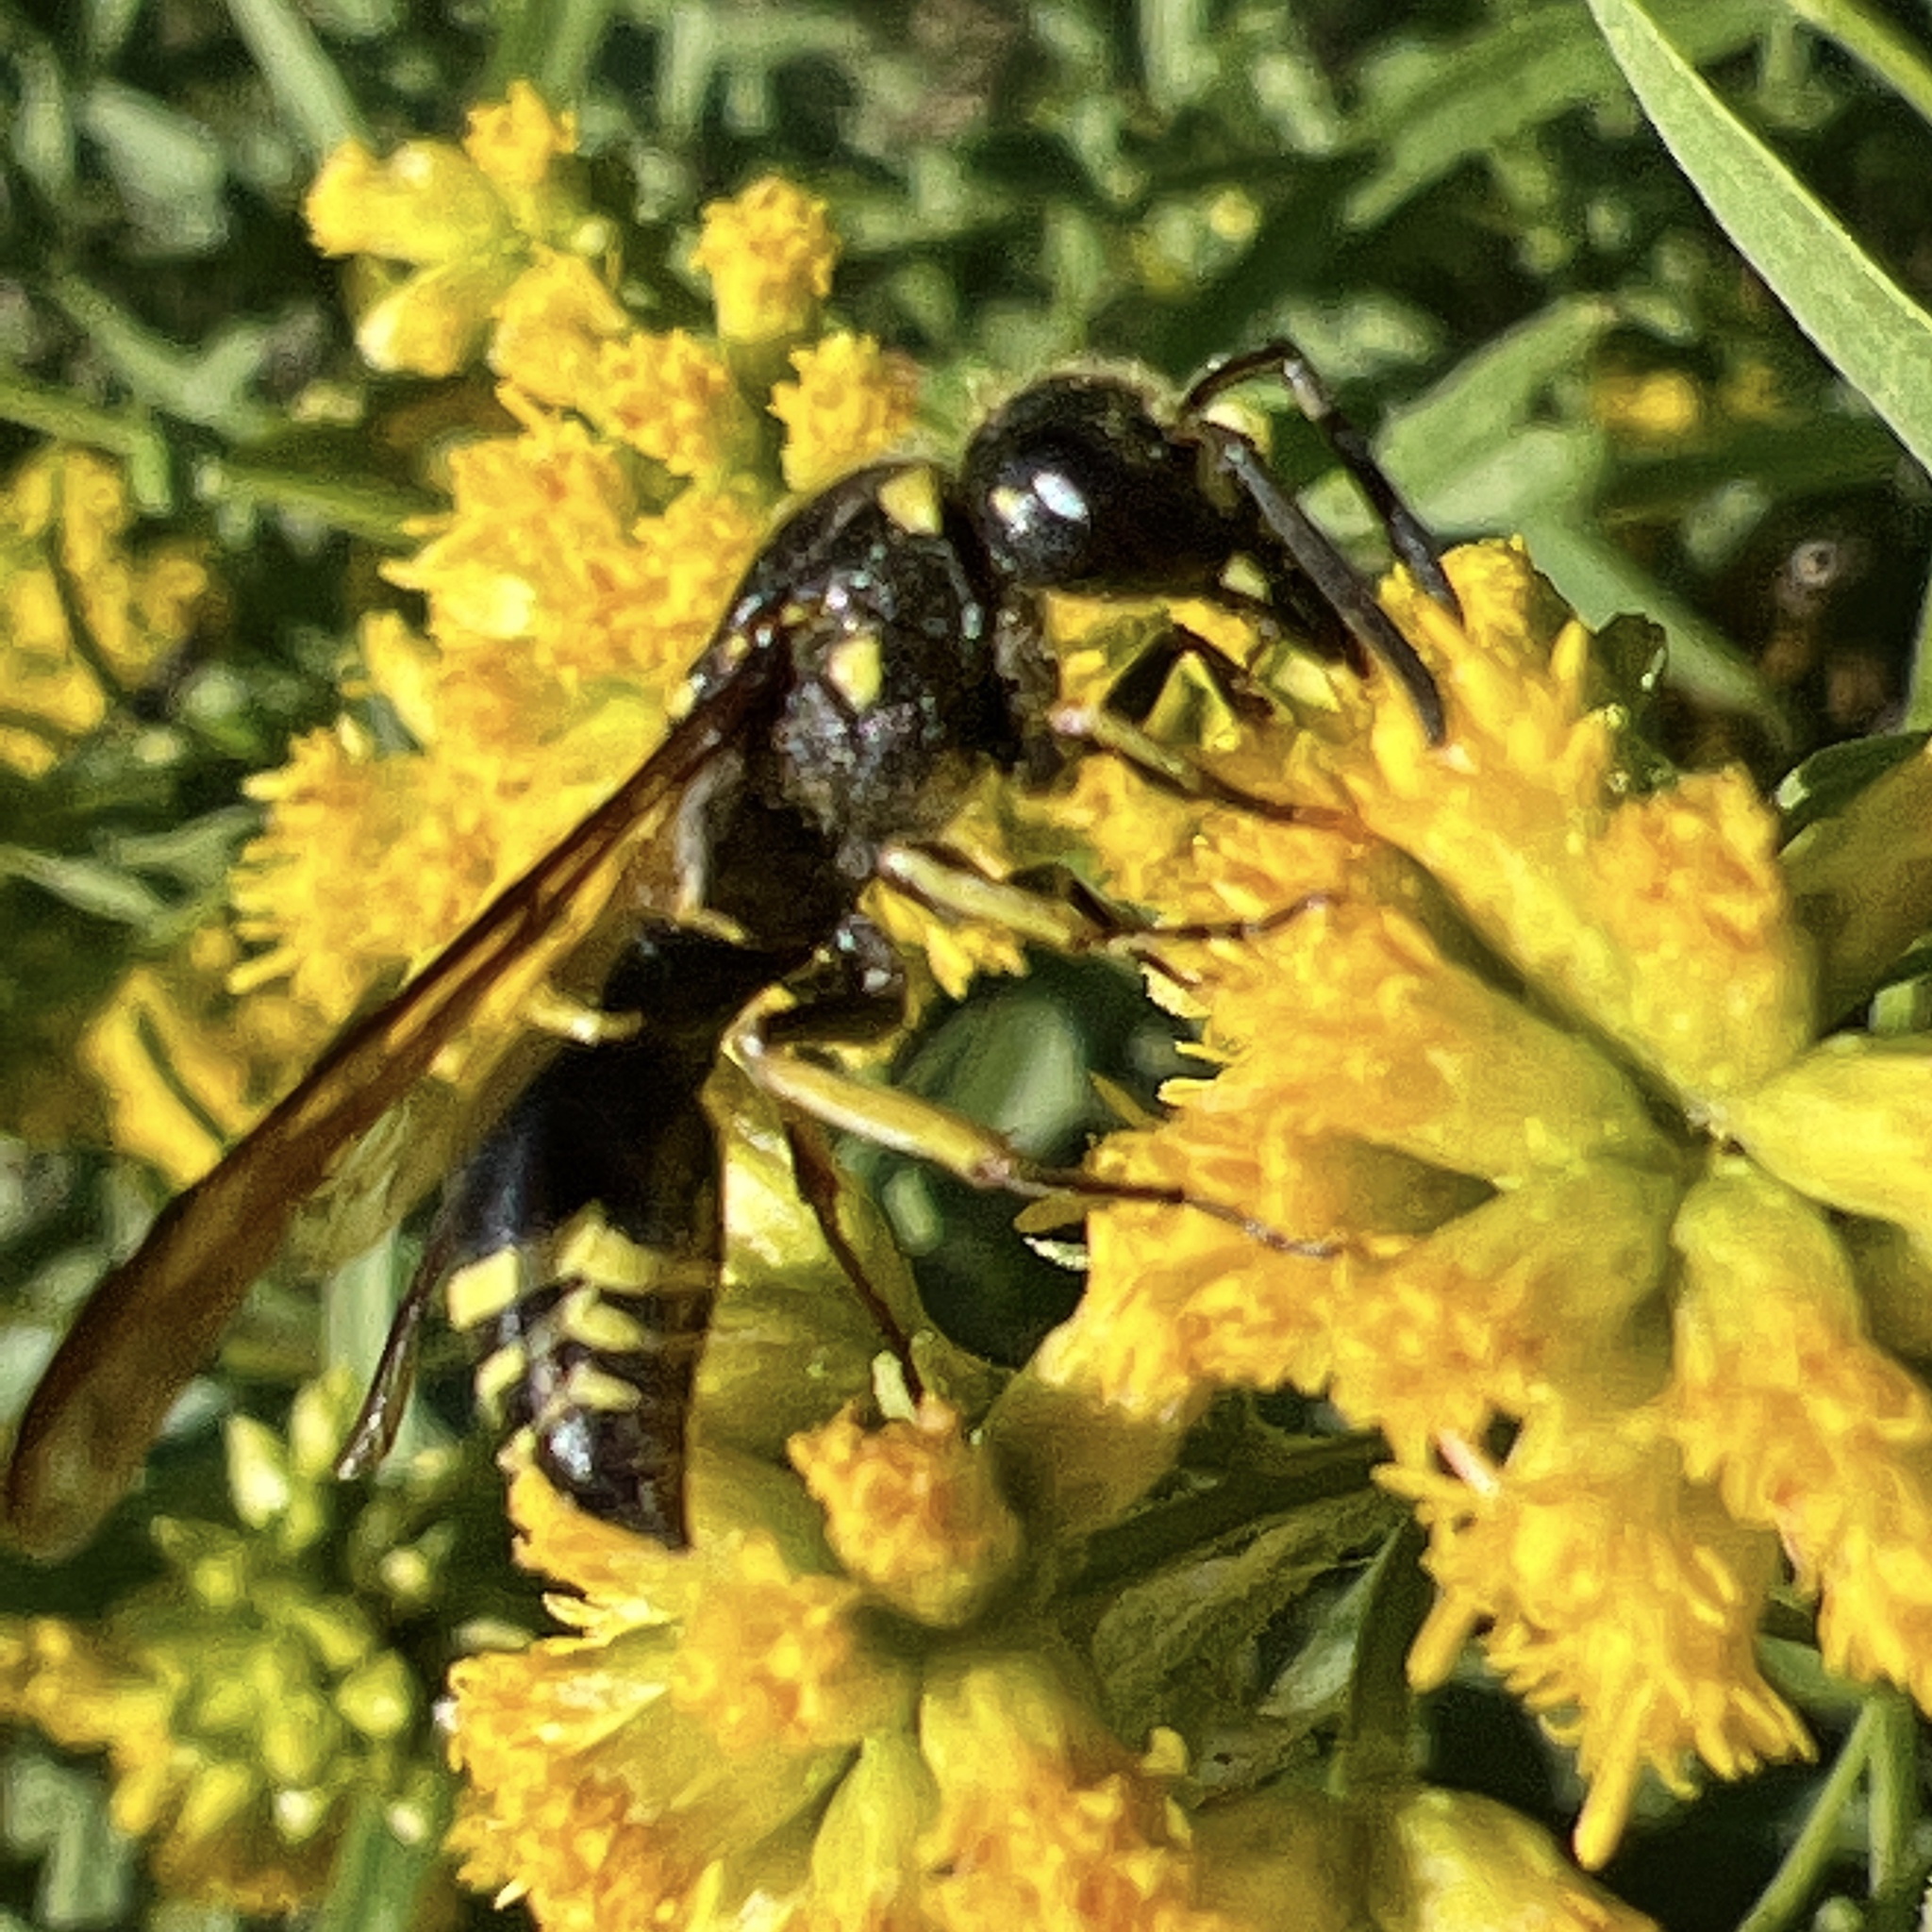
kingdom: Animalia
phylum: Arthropoda
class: Insecta
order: Hymenoptera
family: Vespidae
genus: Ancistrocerus
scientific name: Ancistrocerus
